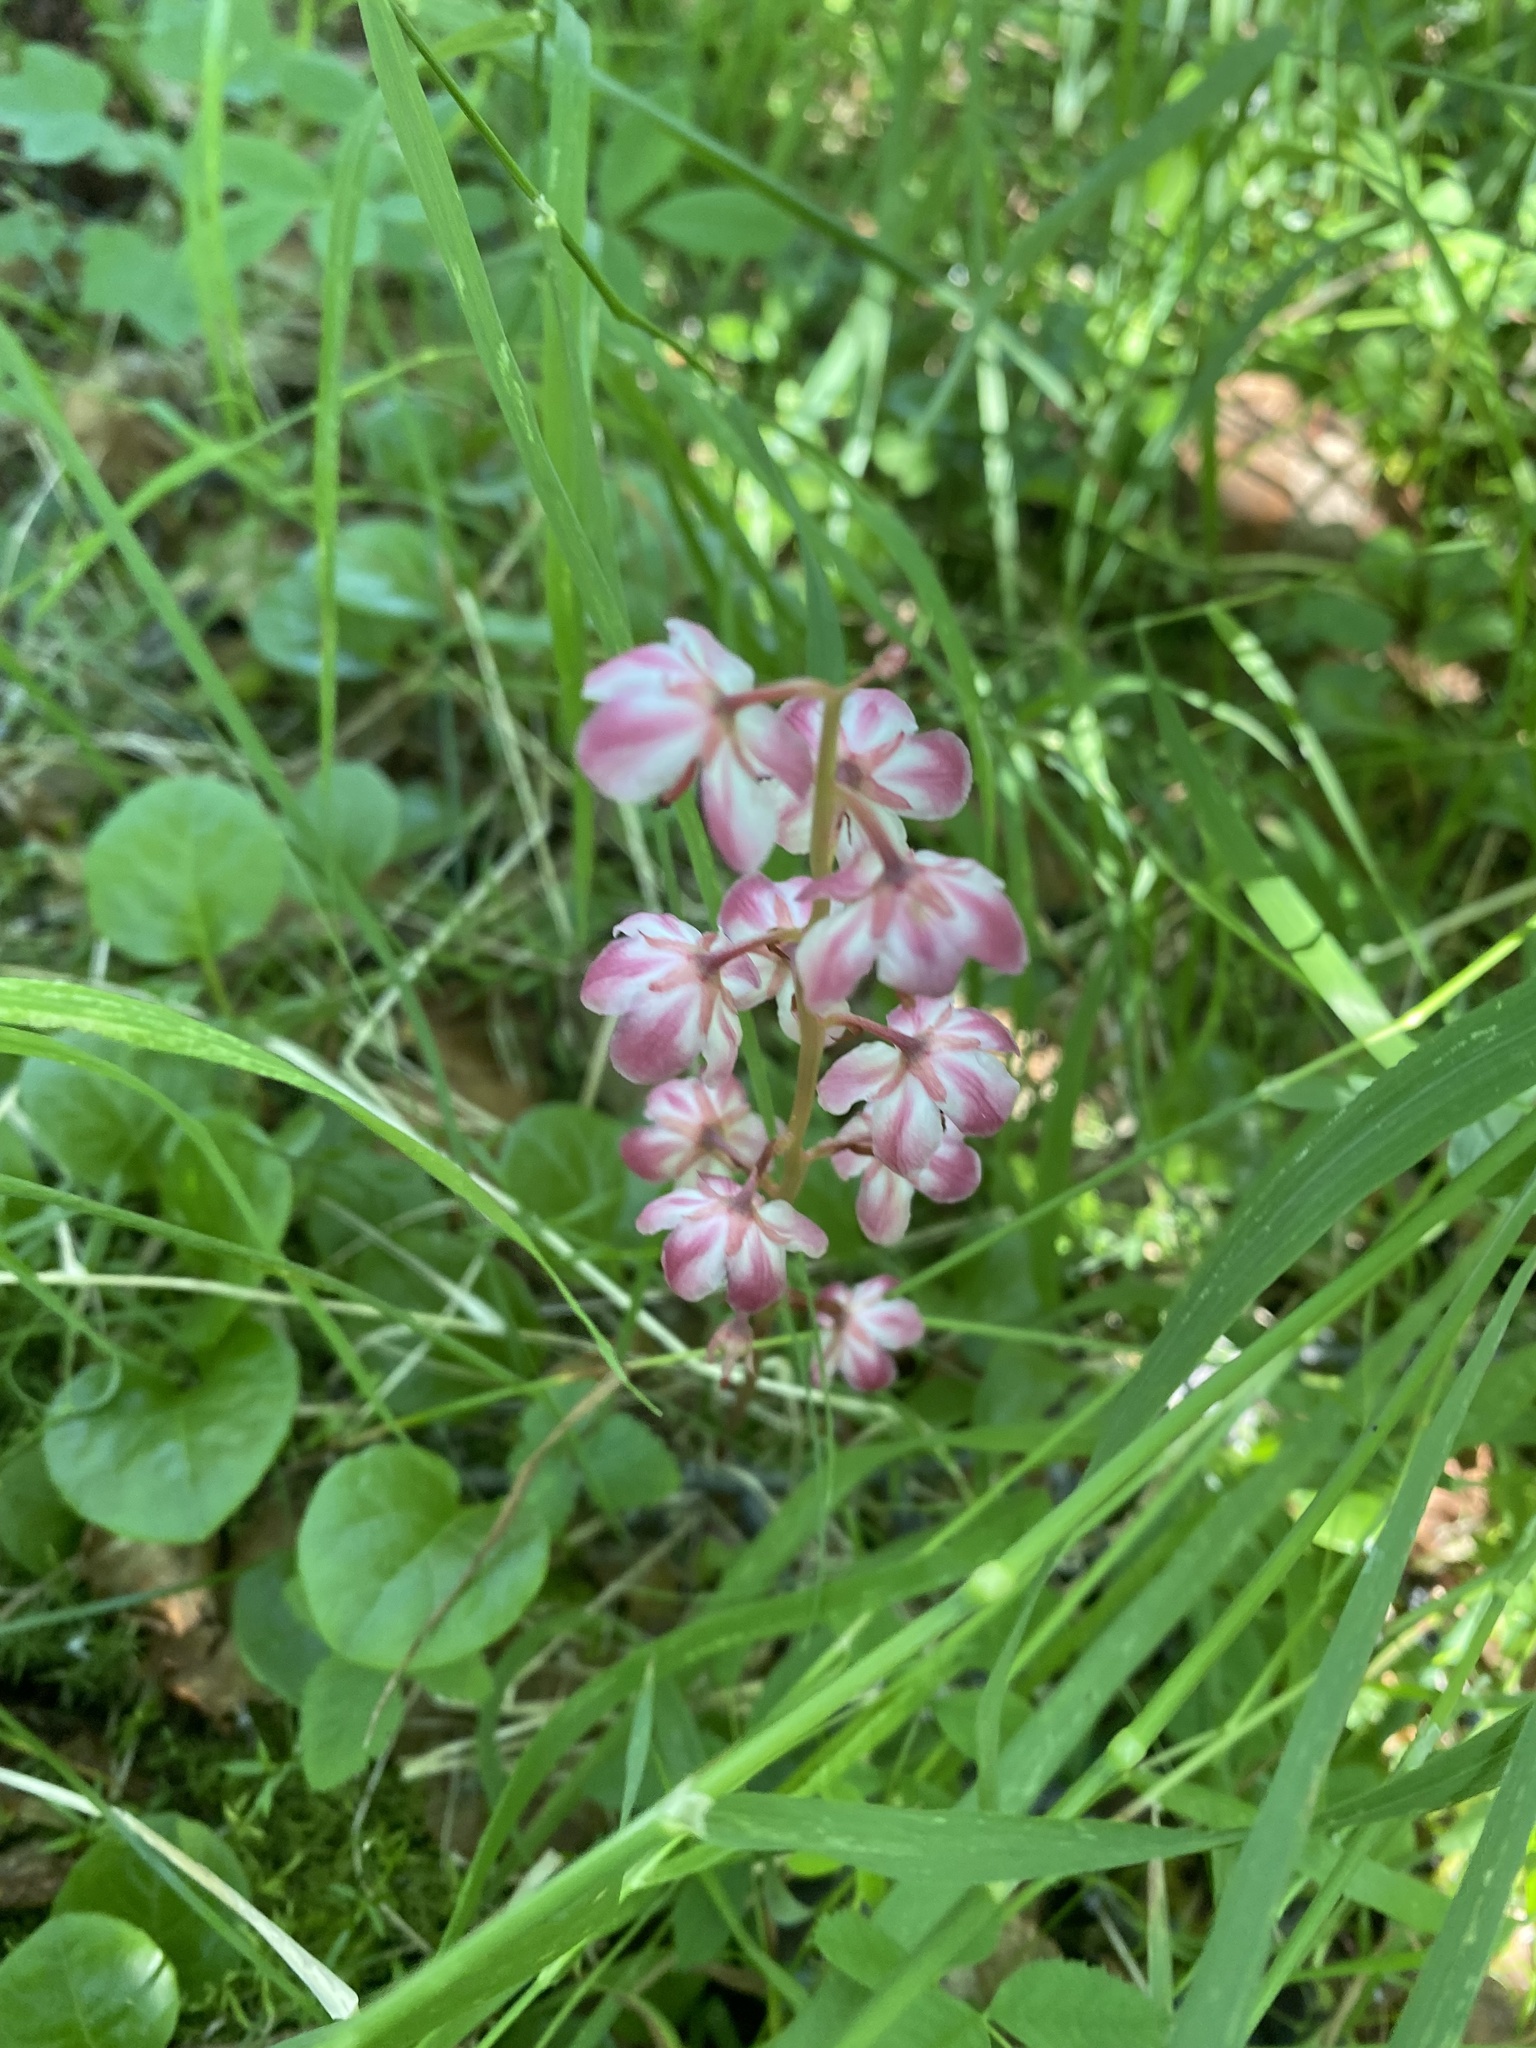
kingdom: Plantae
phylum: Tracheophyta
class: Magnoliopsida
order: Ericales
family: Ericaceae
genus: Pyrola
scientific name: Pyrola asarifolia
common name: Bog wintergreen
